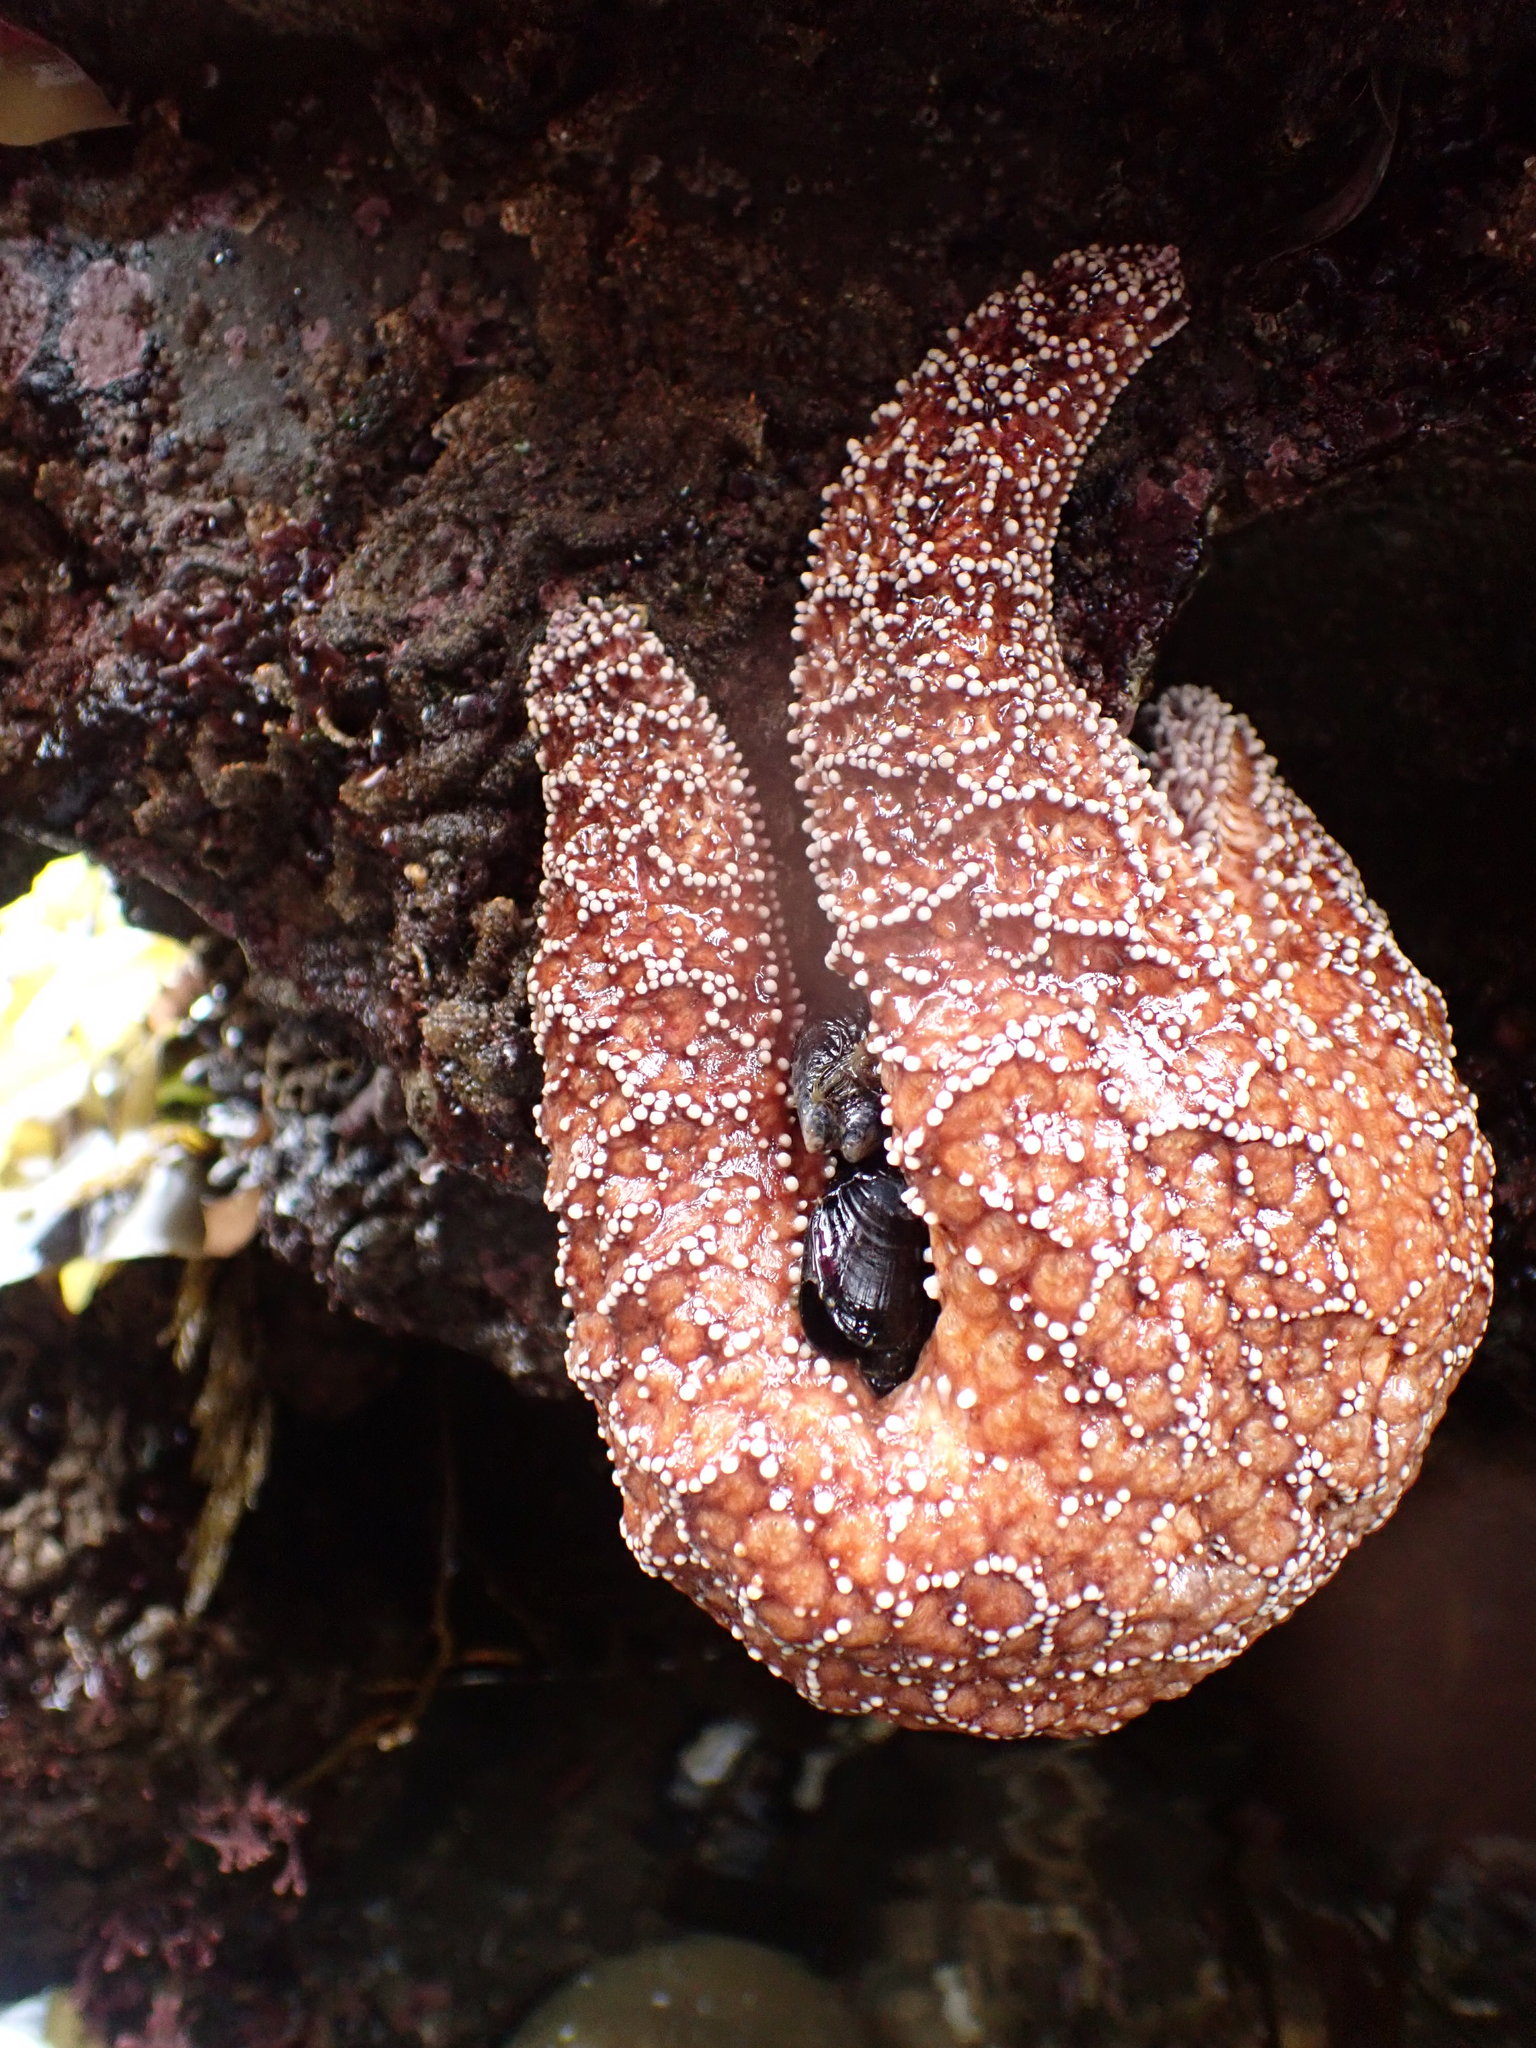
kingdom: Animalia
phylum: Echinodermata
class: Asteroidea
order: Forcipulatida
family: Asteriidae
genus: Pisaster
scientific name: Pisaster ochraceus
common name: Ochre stars
